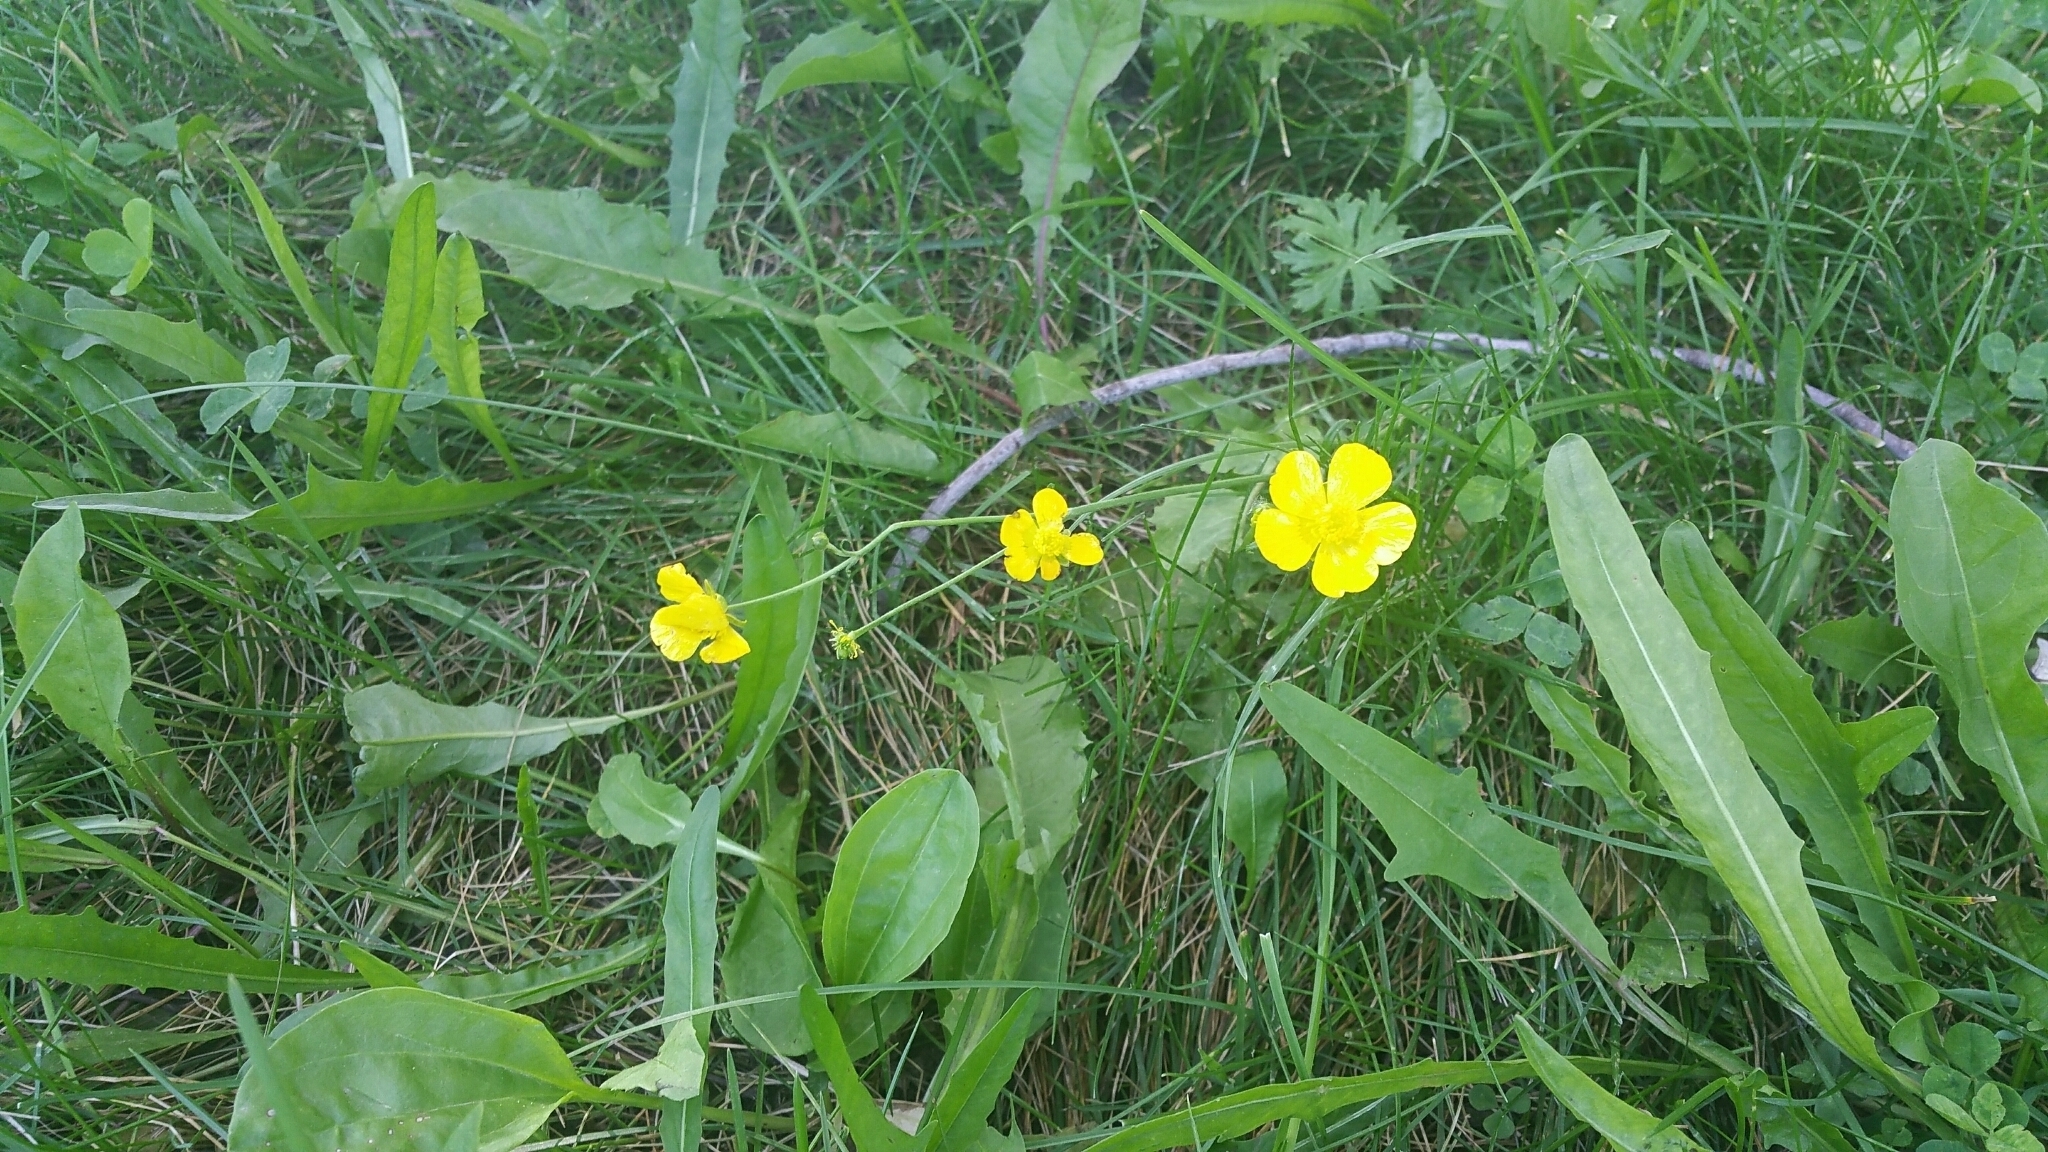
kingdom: Plantae
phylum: Tracheophyta
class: Magnoliopsida
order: Ranunculales
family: Ranunculaceae
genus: Ranunculus
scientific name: Ranunculus acris
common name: Meadow buttercup
